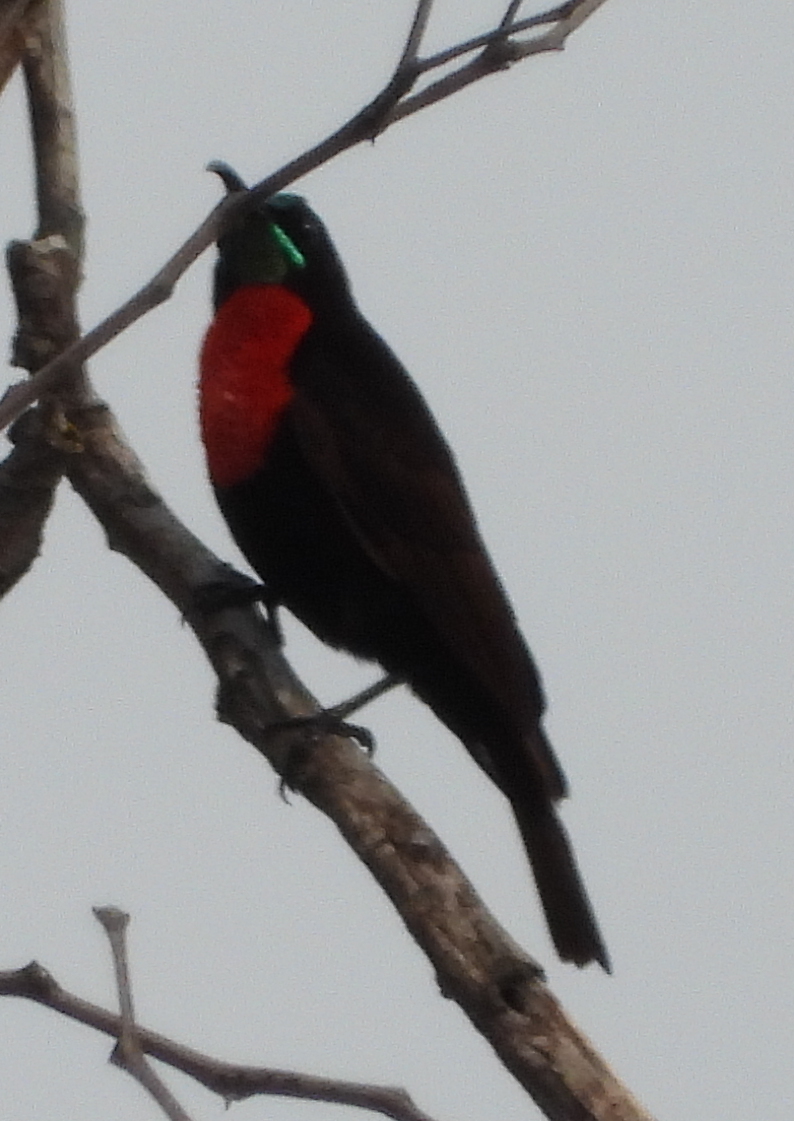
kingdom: Animalia
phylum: Chordata
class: Aves
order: Passeriformes
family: Nectariniidae
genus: Chalcomitra
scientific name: Chalcomitra senegalensis
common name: Scarlet-chested sunbird
